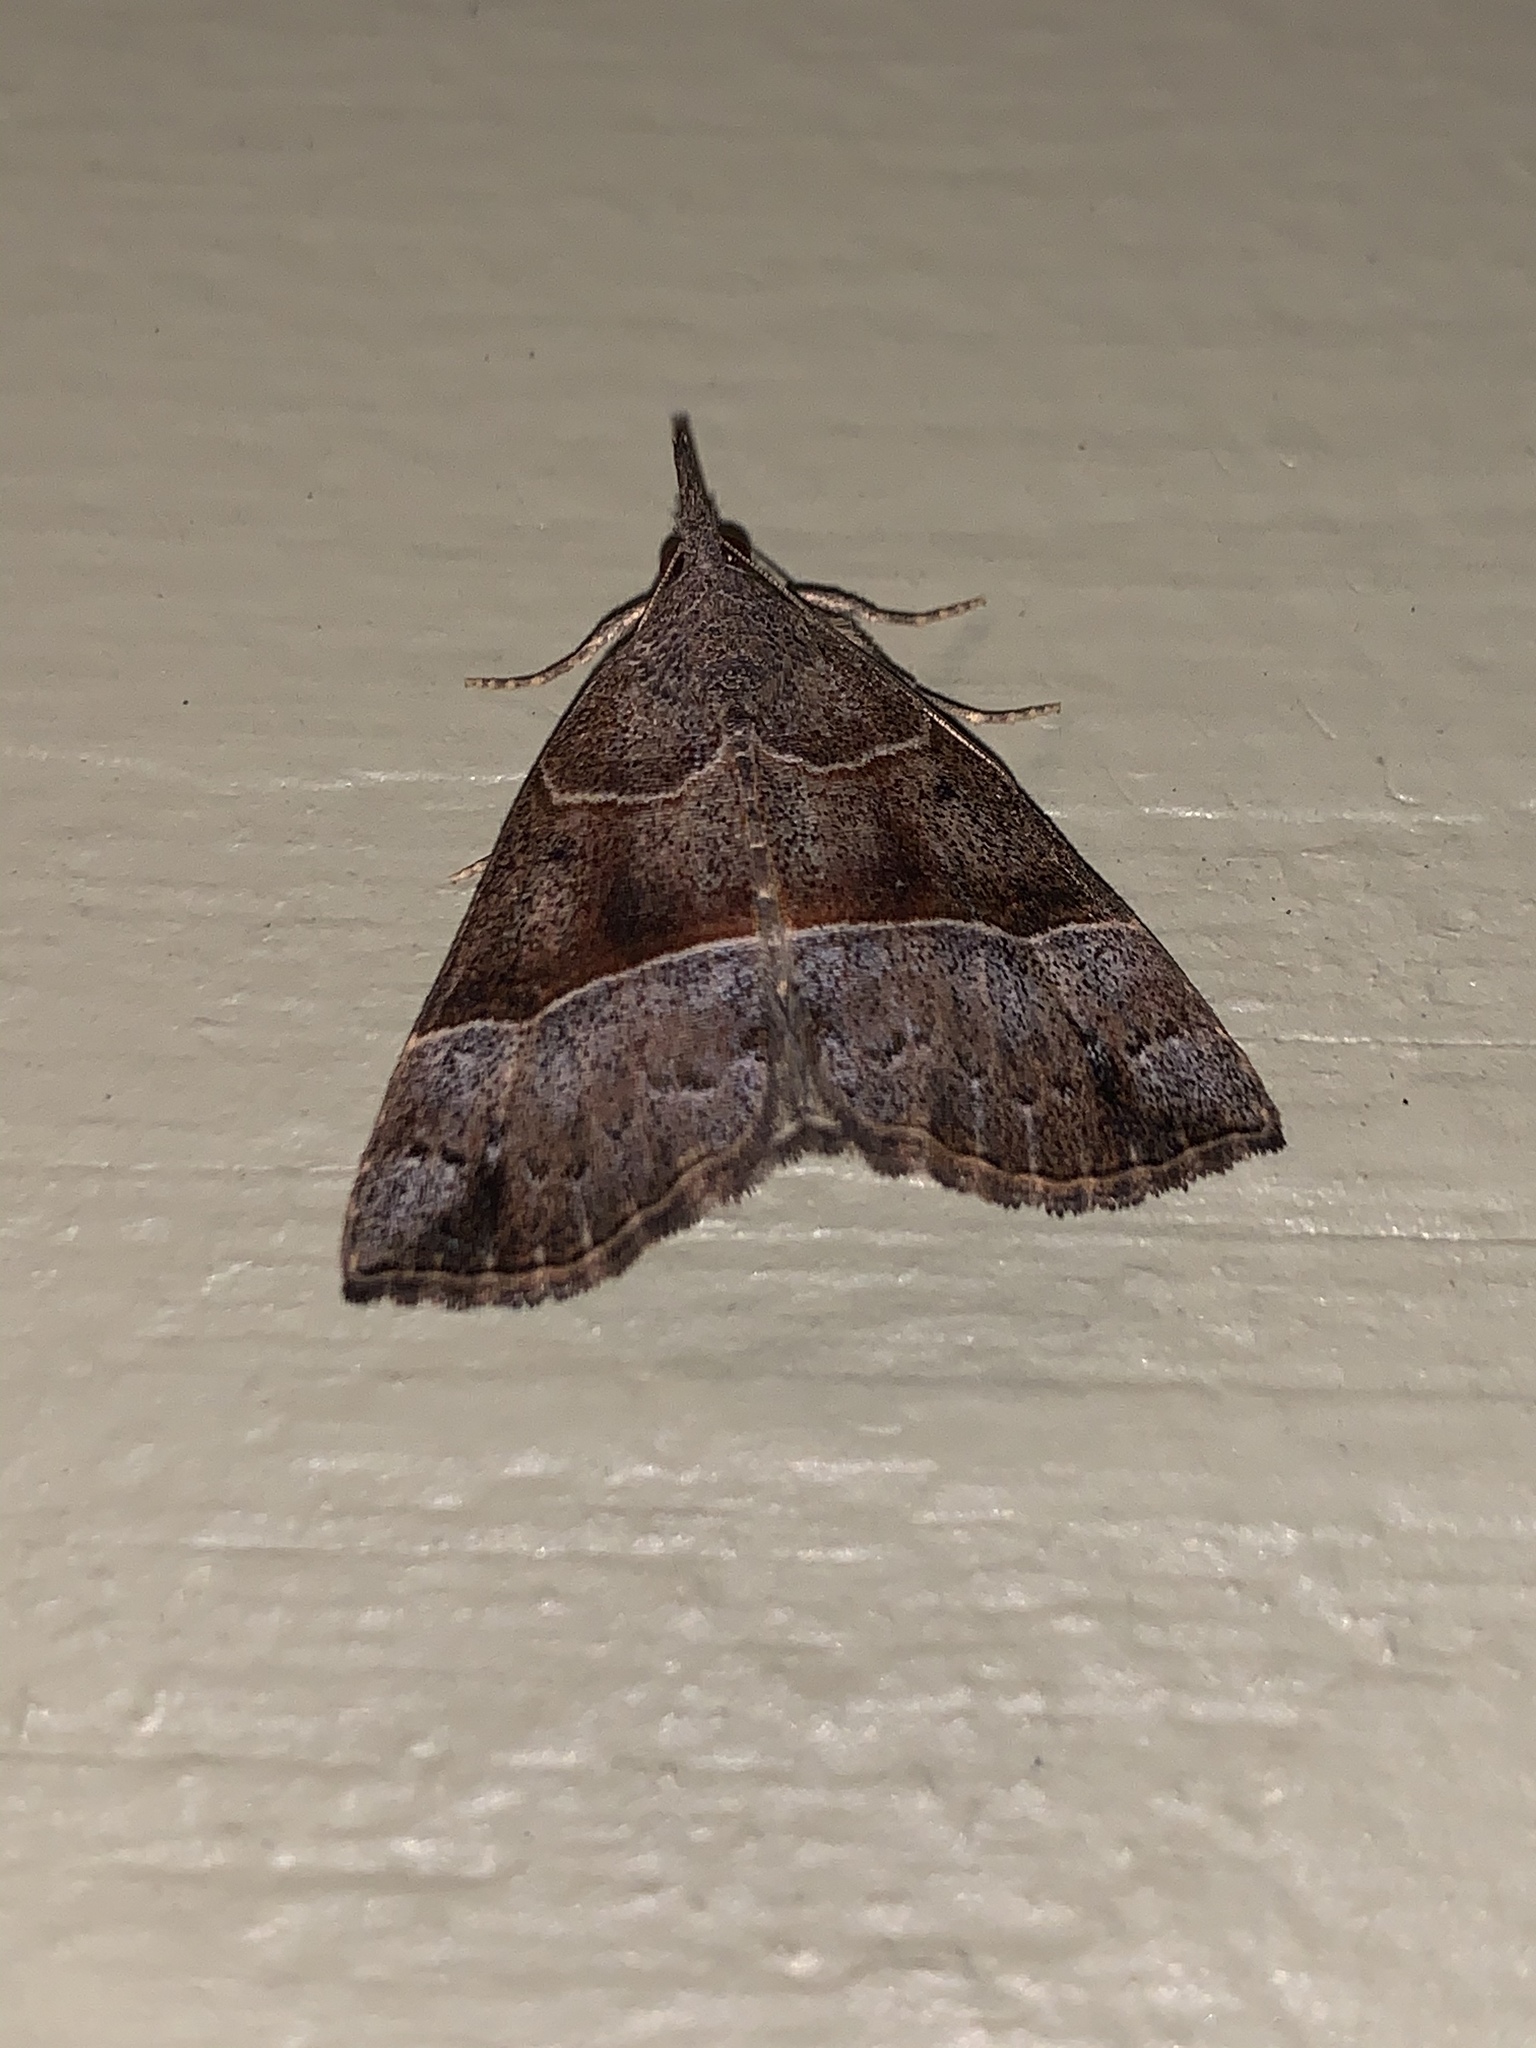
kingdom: Animalia
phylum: Arthropoda
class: Insecta
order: Lepidoptera
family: Erebidae
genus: Hypena
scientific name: Hypena deceptalis
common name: Deceptive snout
